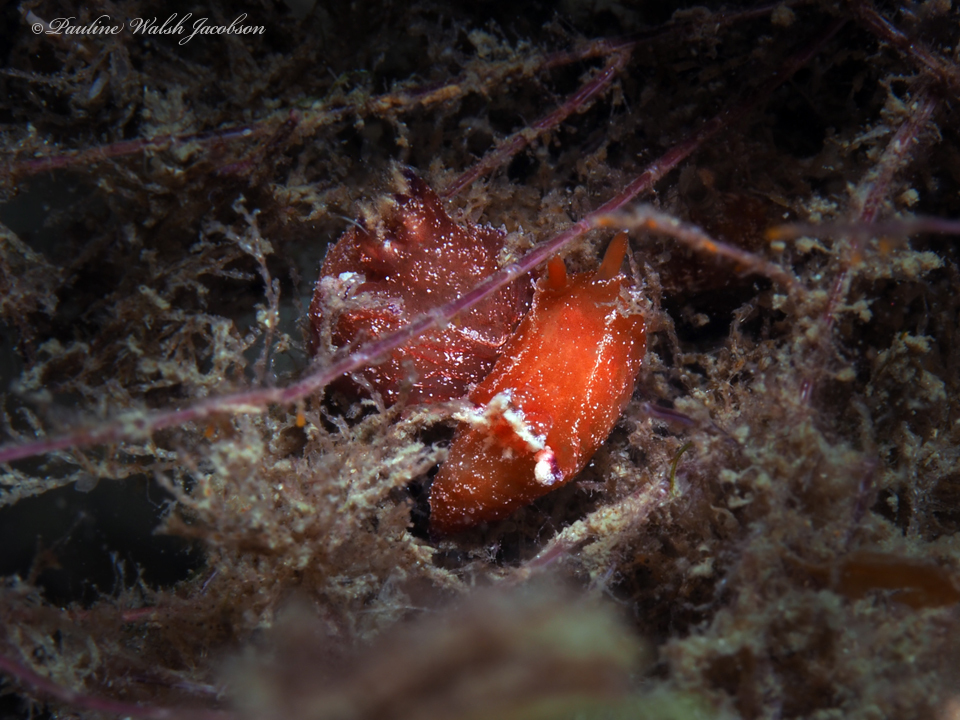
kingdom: Animalia
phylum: Mollusca
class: Gastropoda
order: Nudibranchia
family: Polyceridae
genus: Plocamopherus
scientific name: Plocamopherus lucayensis
